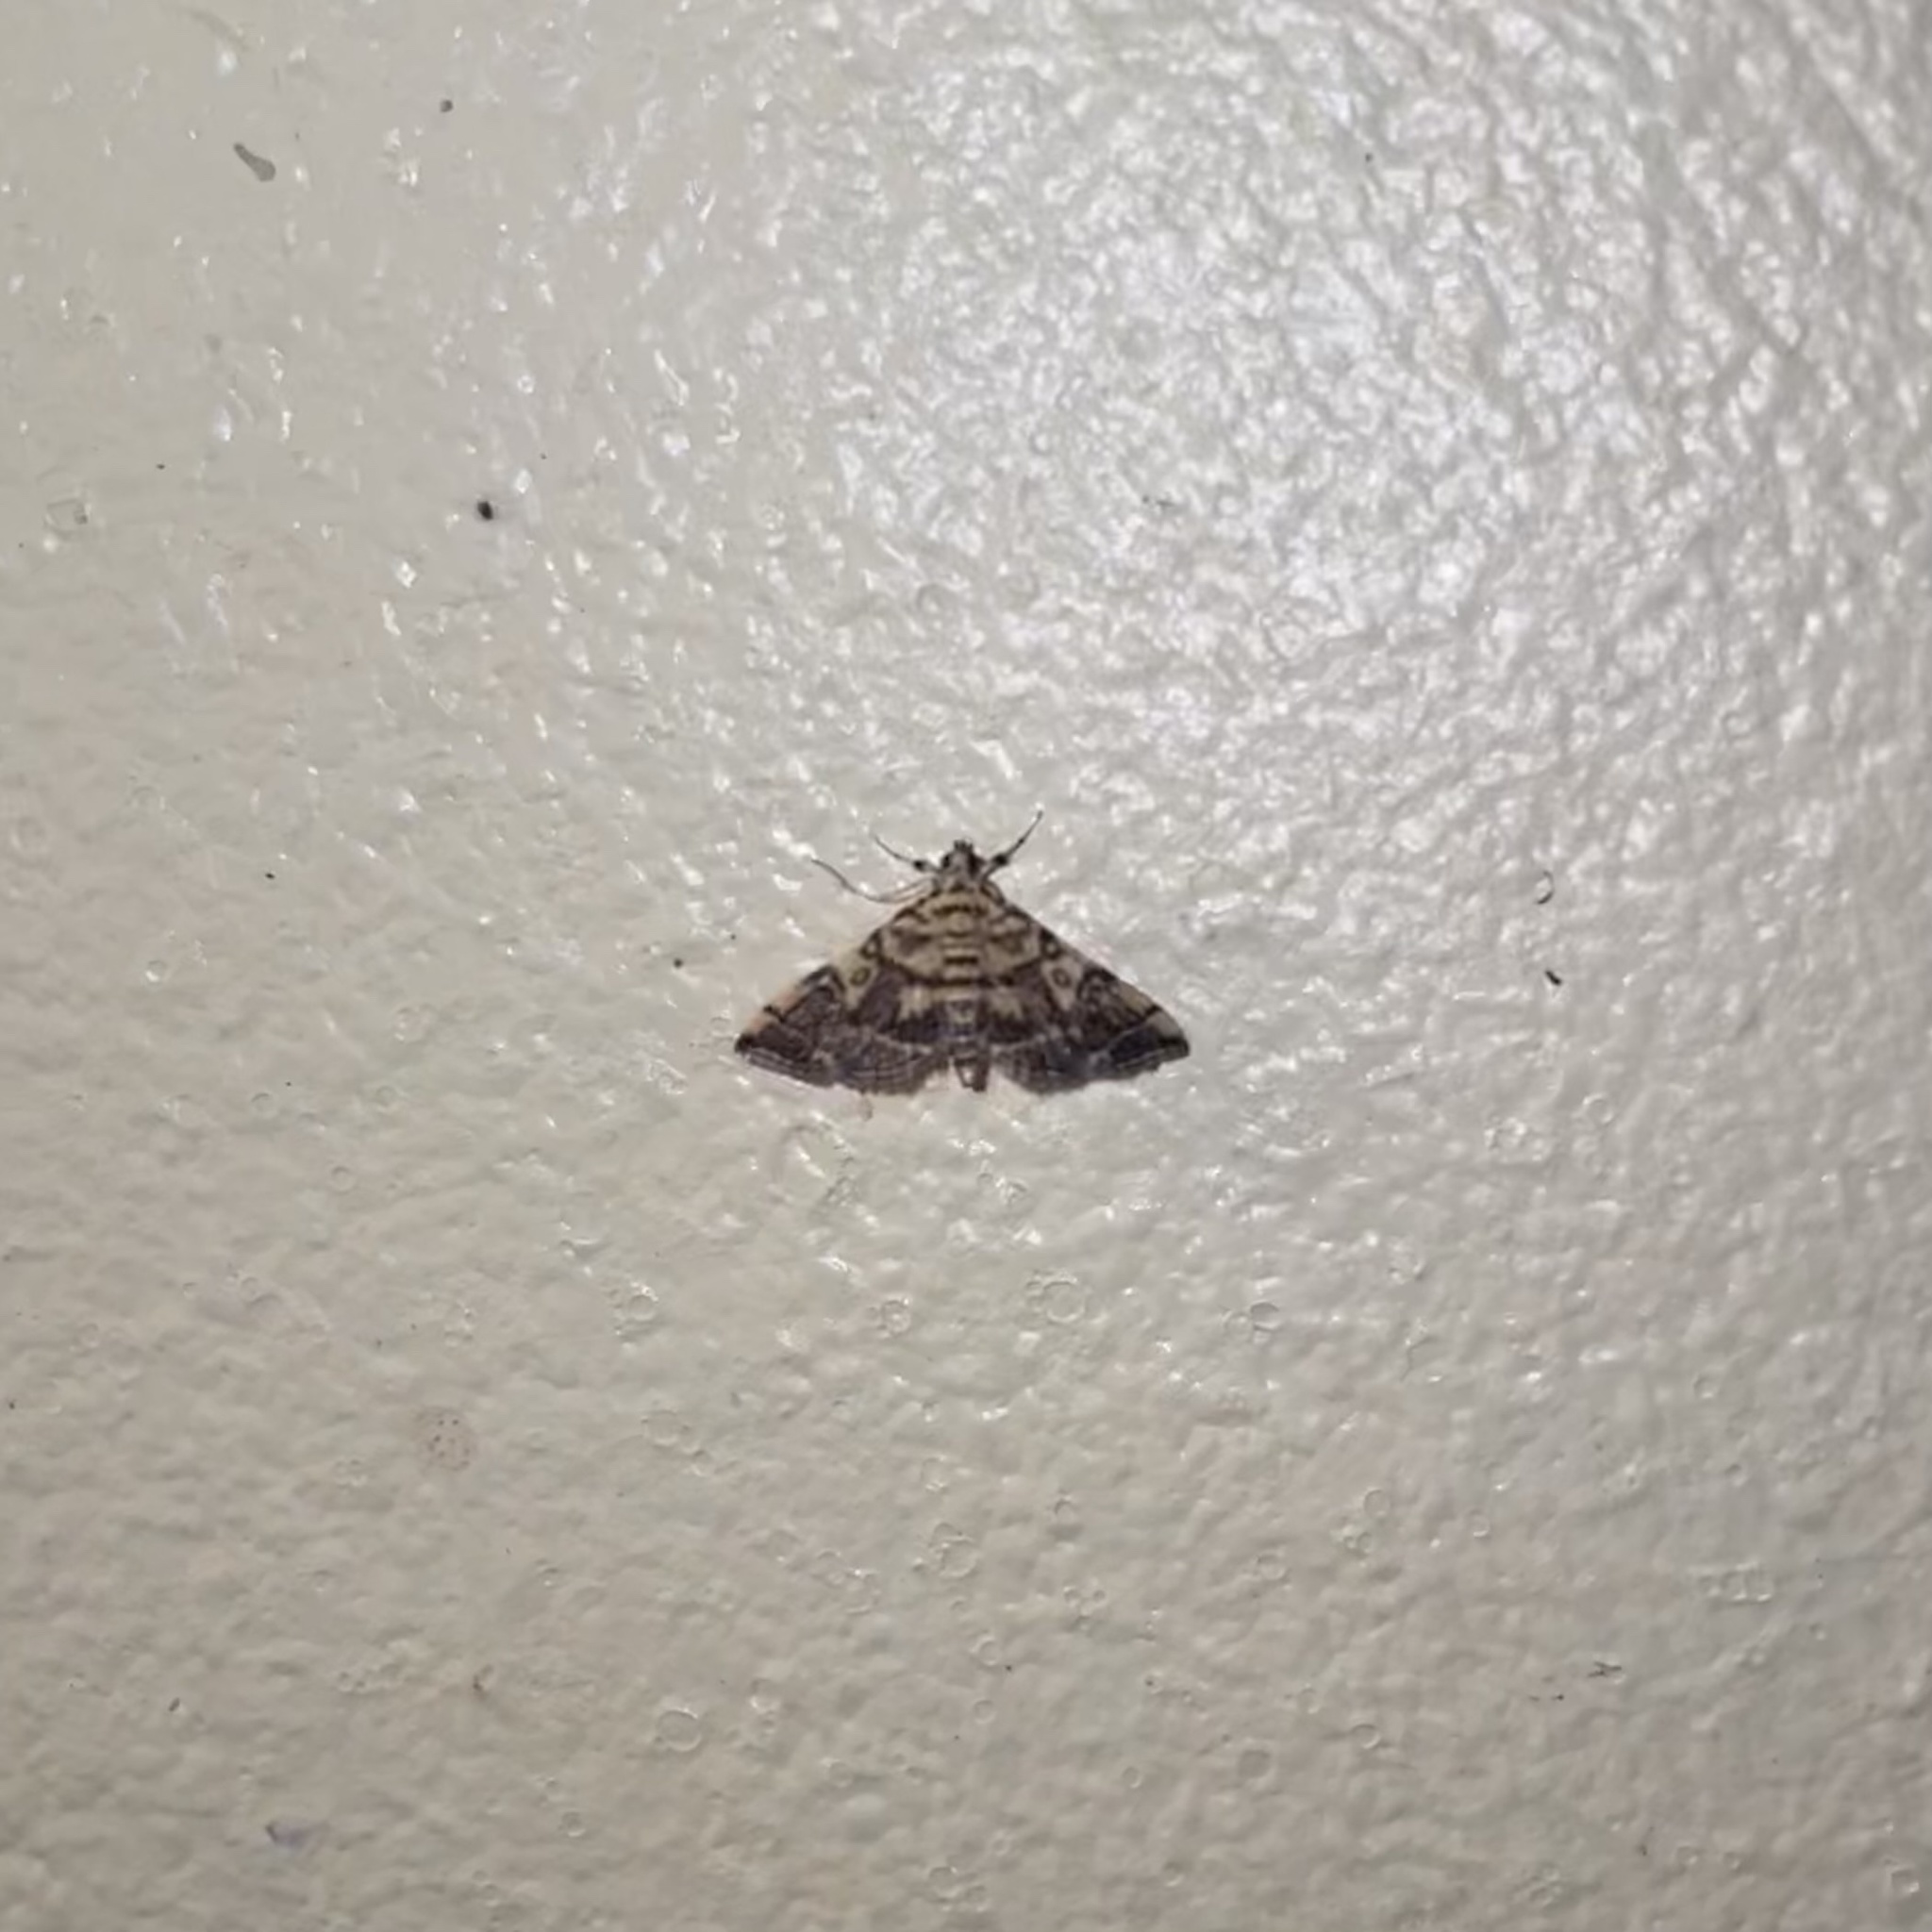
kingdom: Animalia
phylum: Arthropoda
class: Insecta
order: Lepidoptera
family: Crambidae
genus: Apogeshna
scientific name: Apogeshna stenialis
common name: Checkered apogeshna moth
